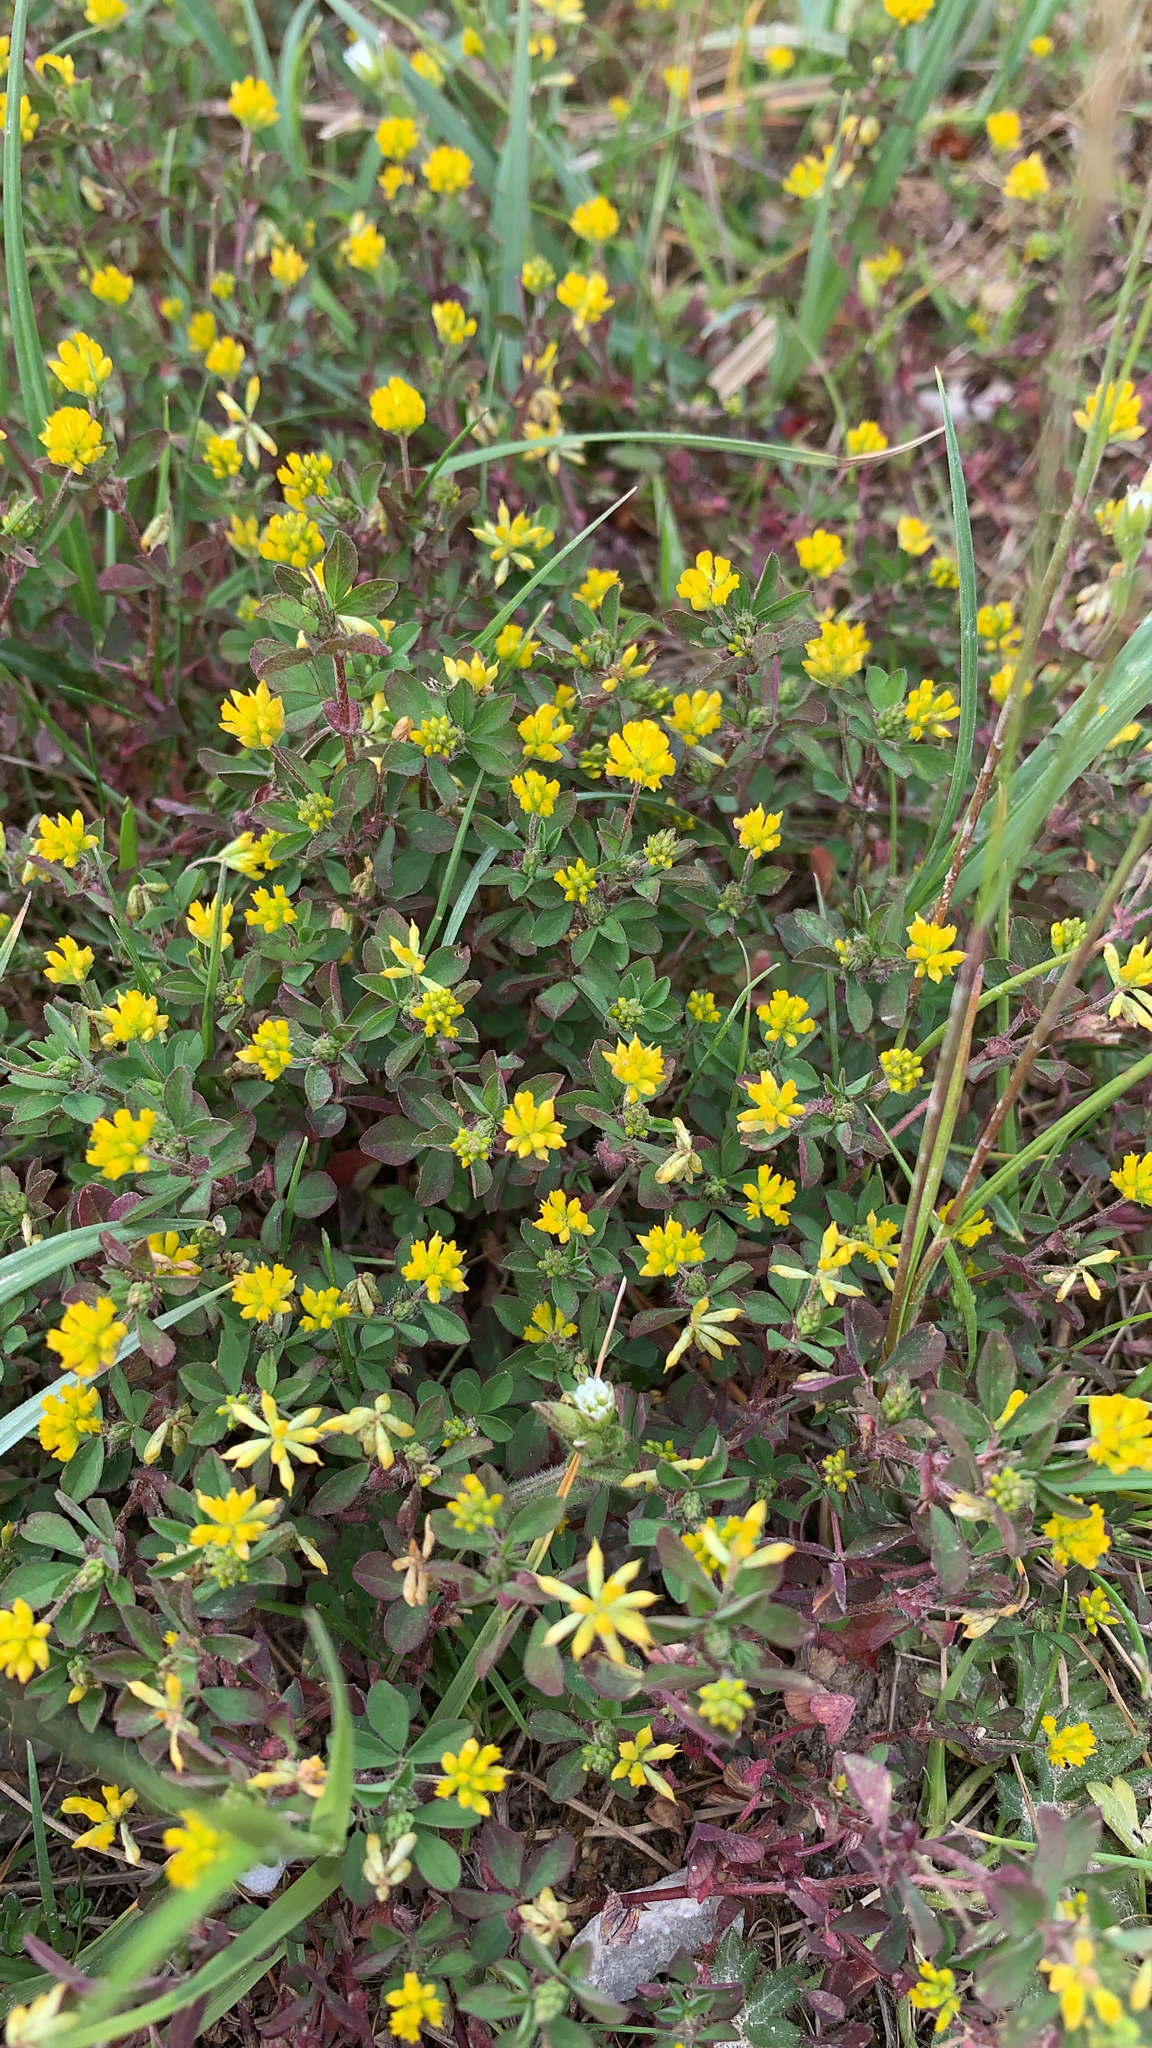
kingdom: Plantae
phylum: Tracheophyta
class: Magnoliopsida
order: Fabales
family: Fabaceae
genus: Trifolium
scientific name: Trifolium dubium
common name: Suckling clover
